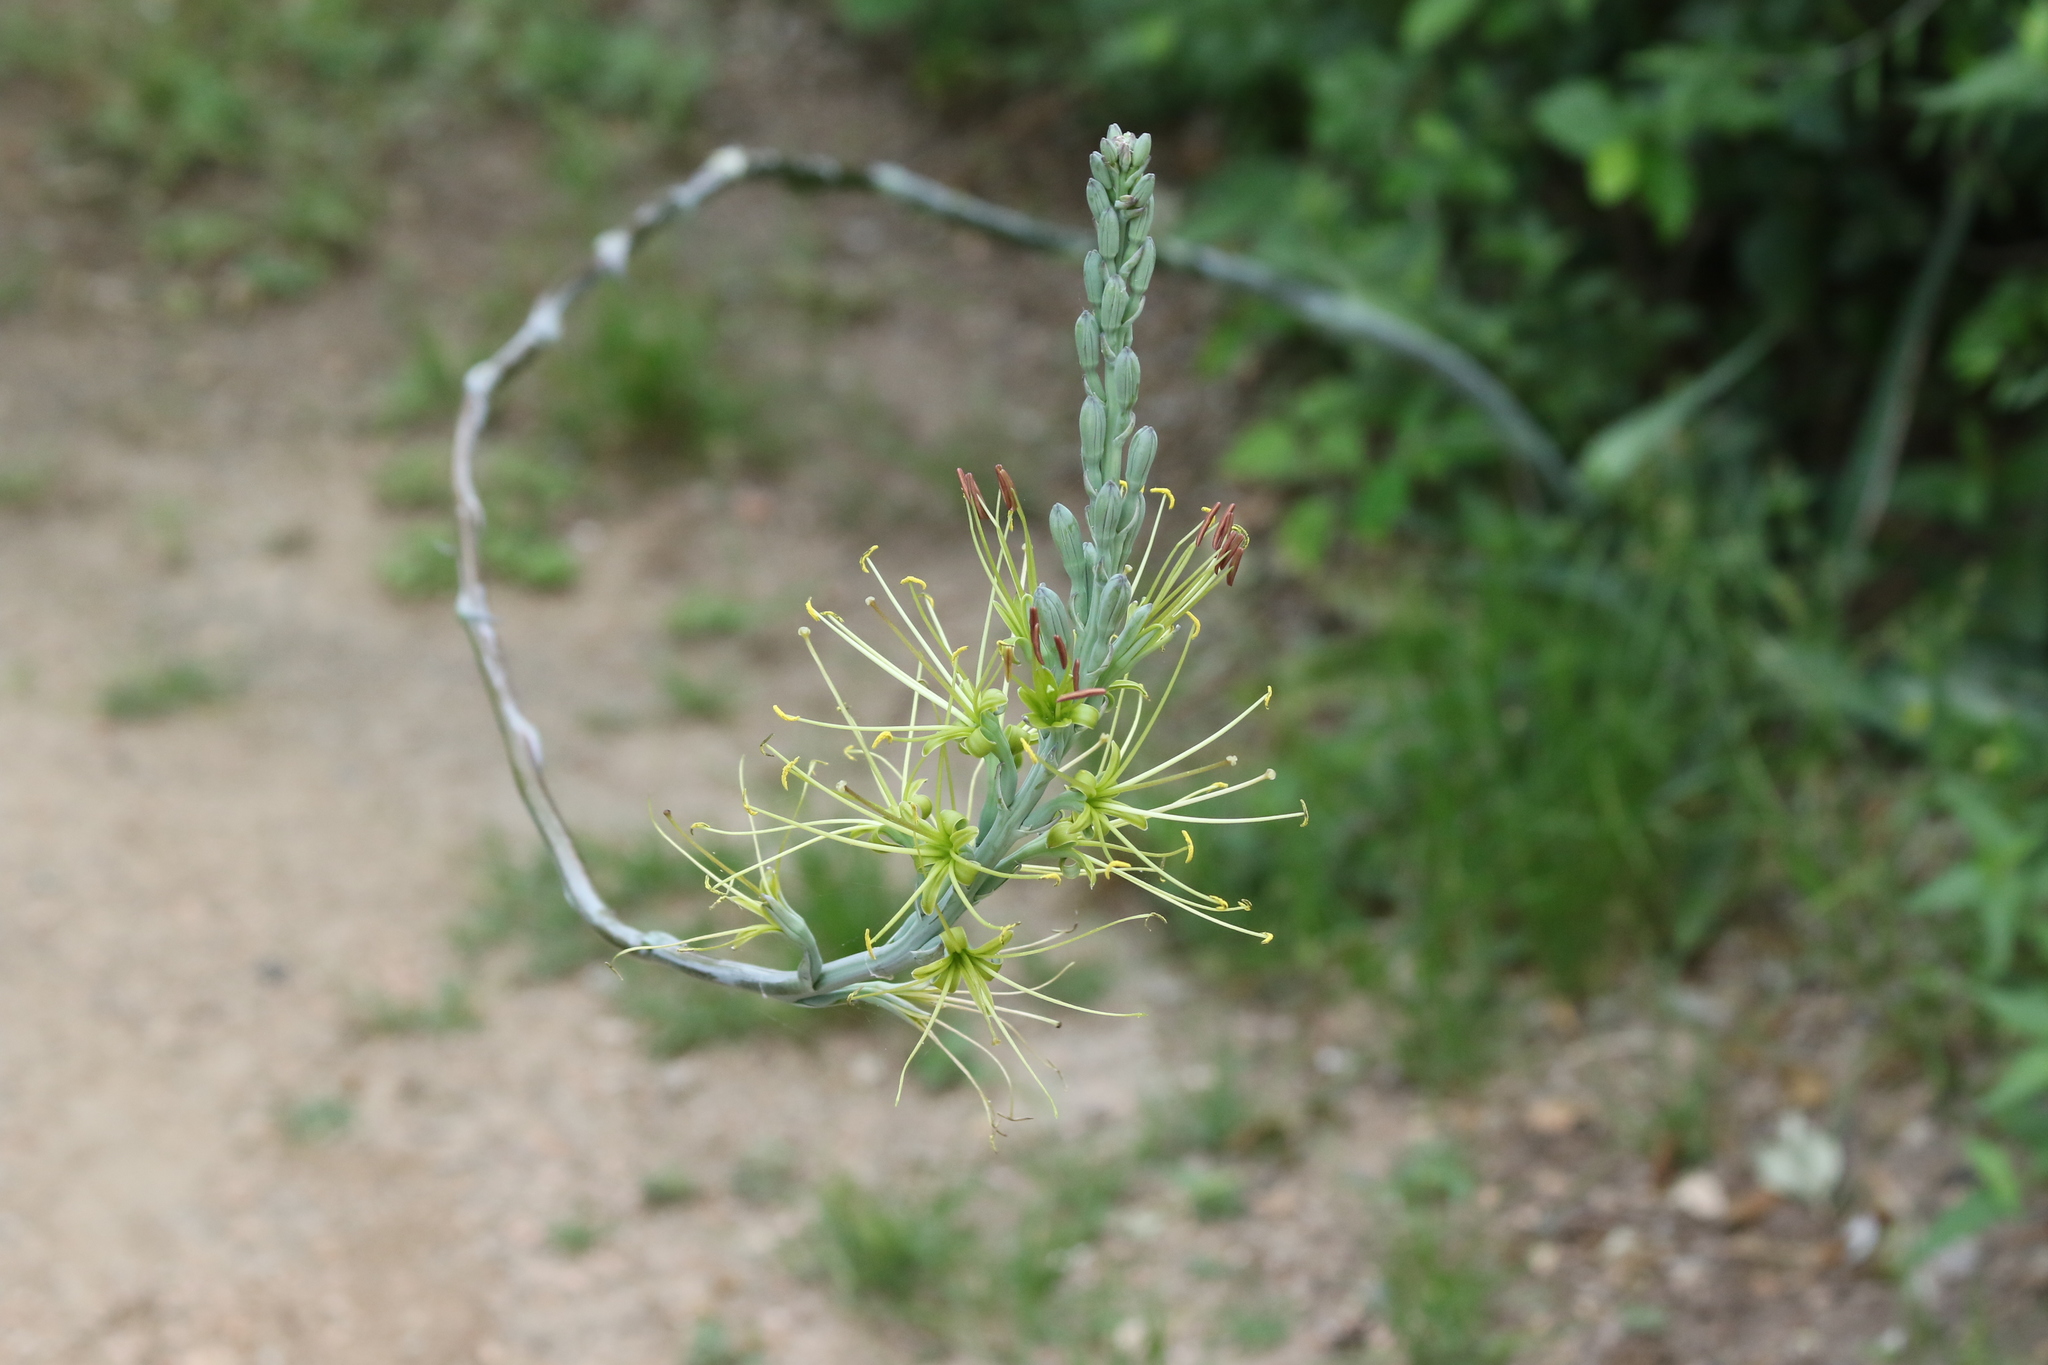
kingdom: Plantae
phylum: Tracheophyta
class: Liliopsida
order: Asparagales
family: Asparagaceae
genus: Agave
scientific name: Agave variegata
